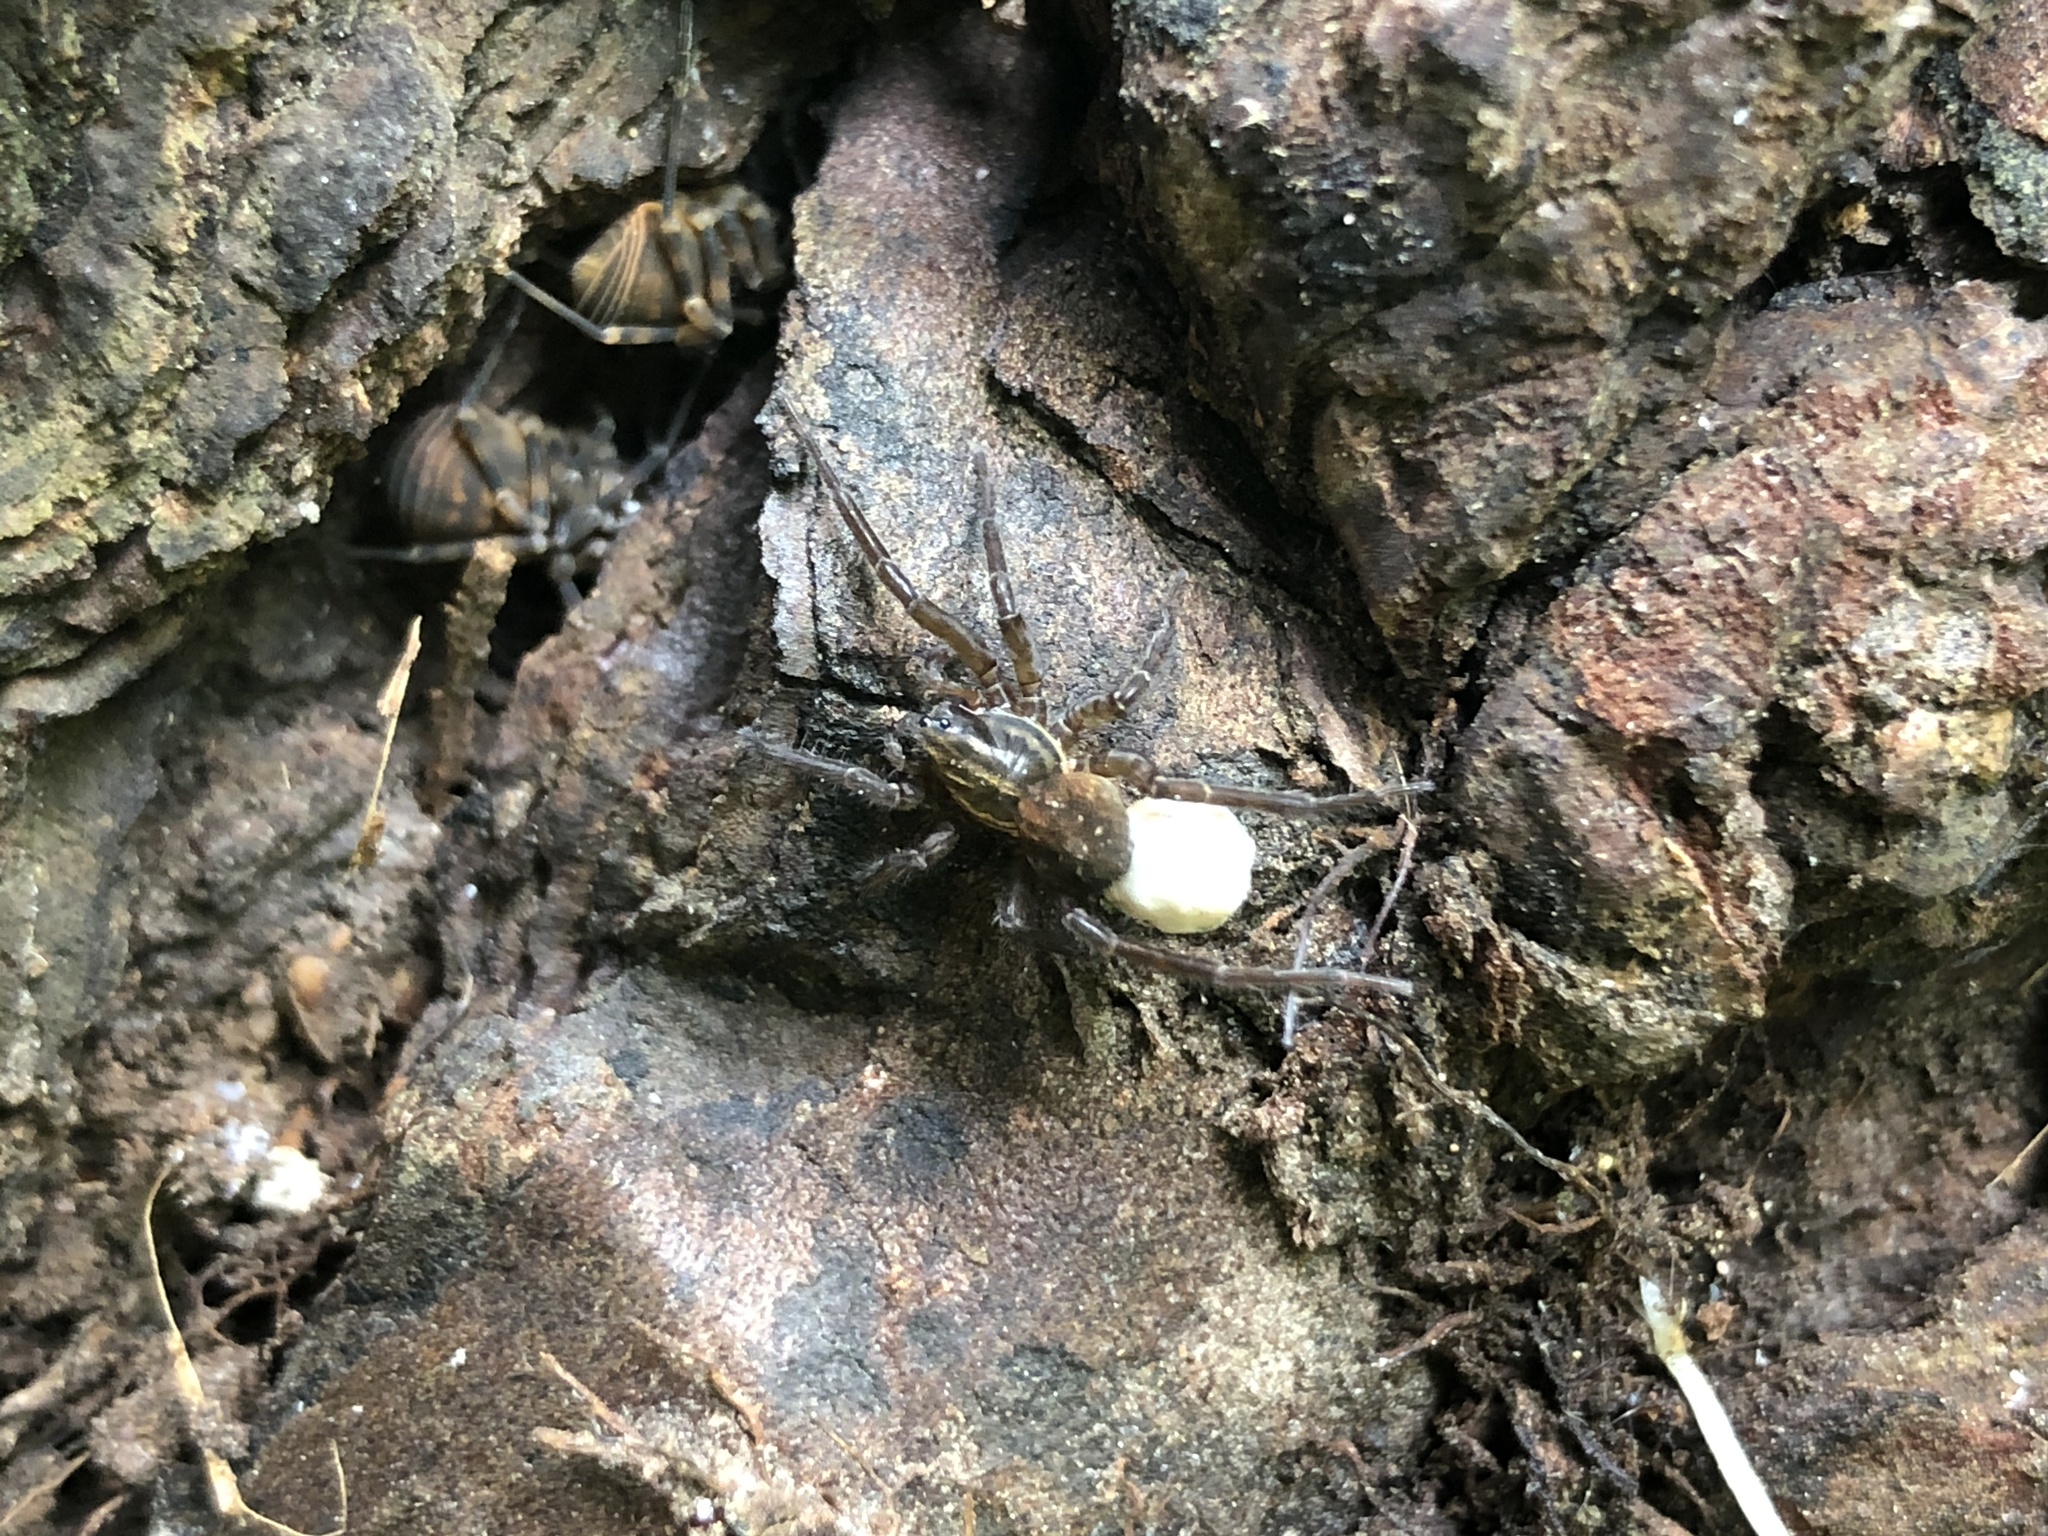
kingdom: Animalia
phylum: Arthropoda
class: Arachnida
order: Araneae
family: Lycosidae
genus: Allotrochosina
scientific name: Allotrochosina schauinslandi
